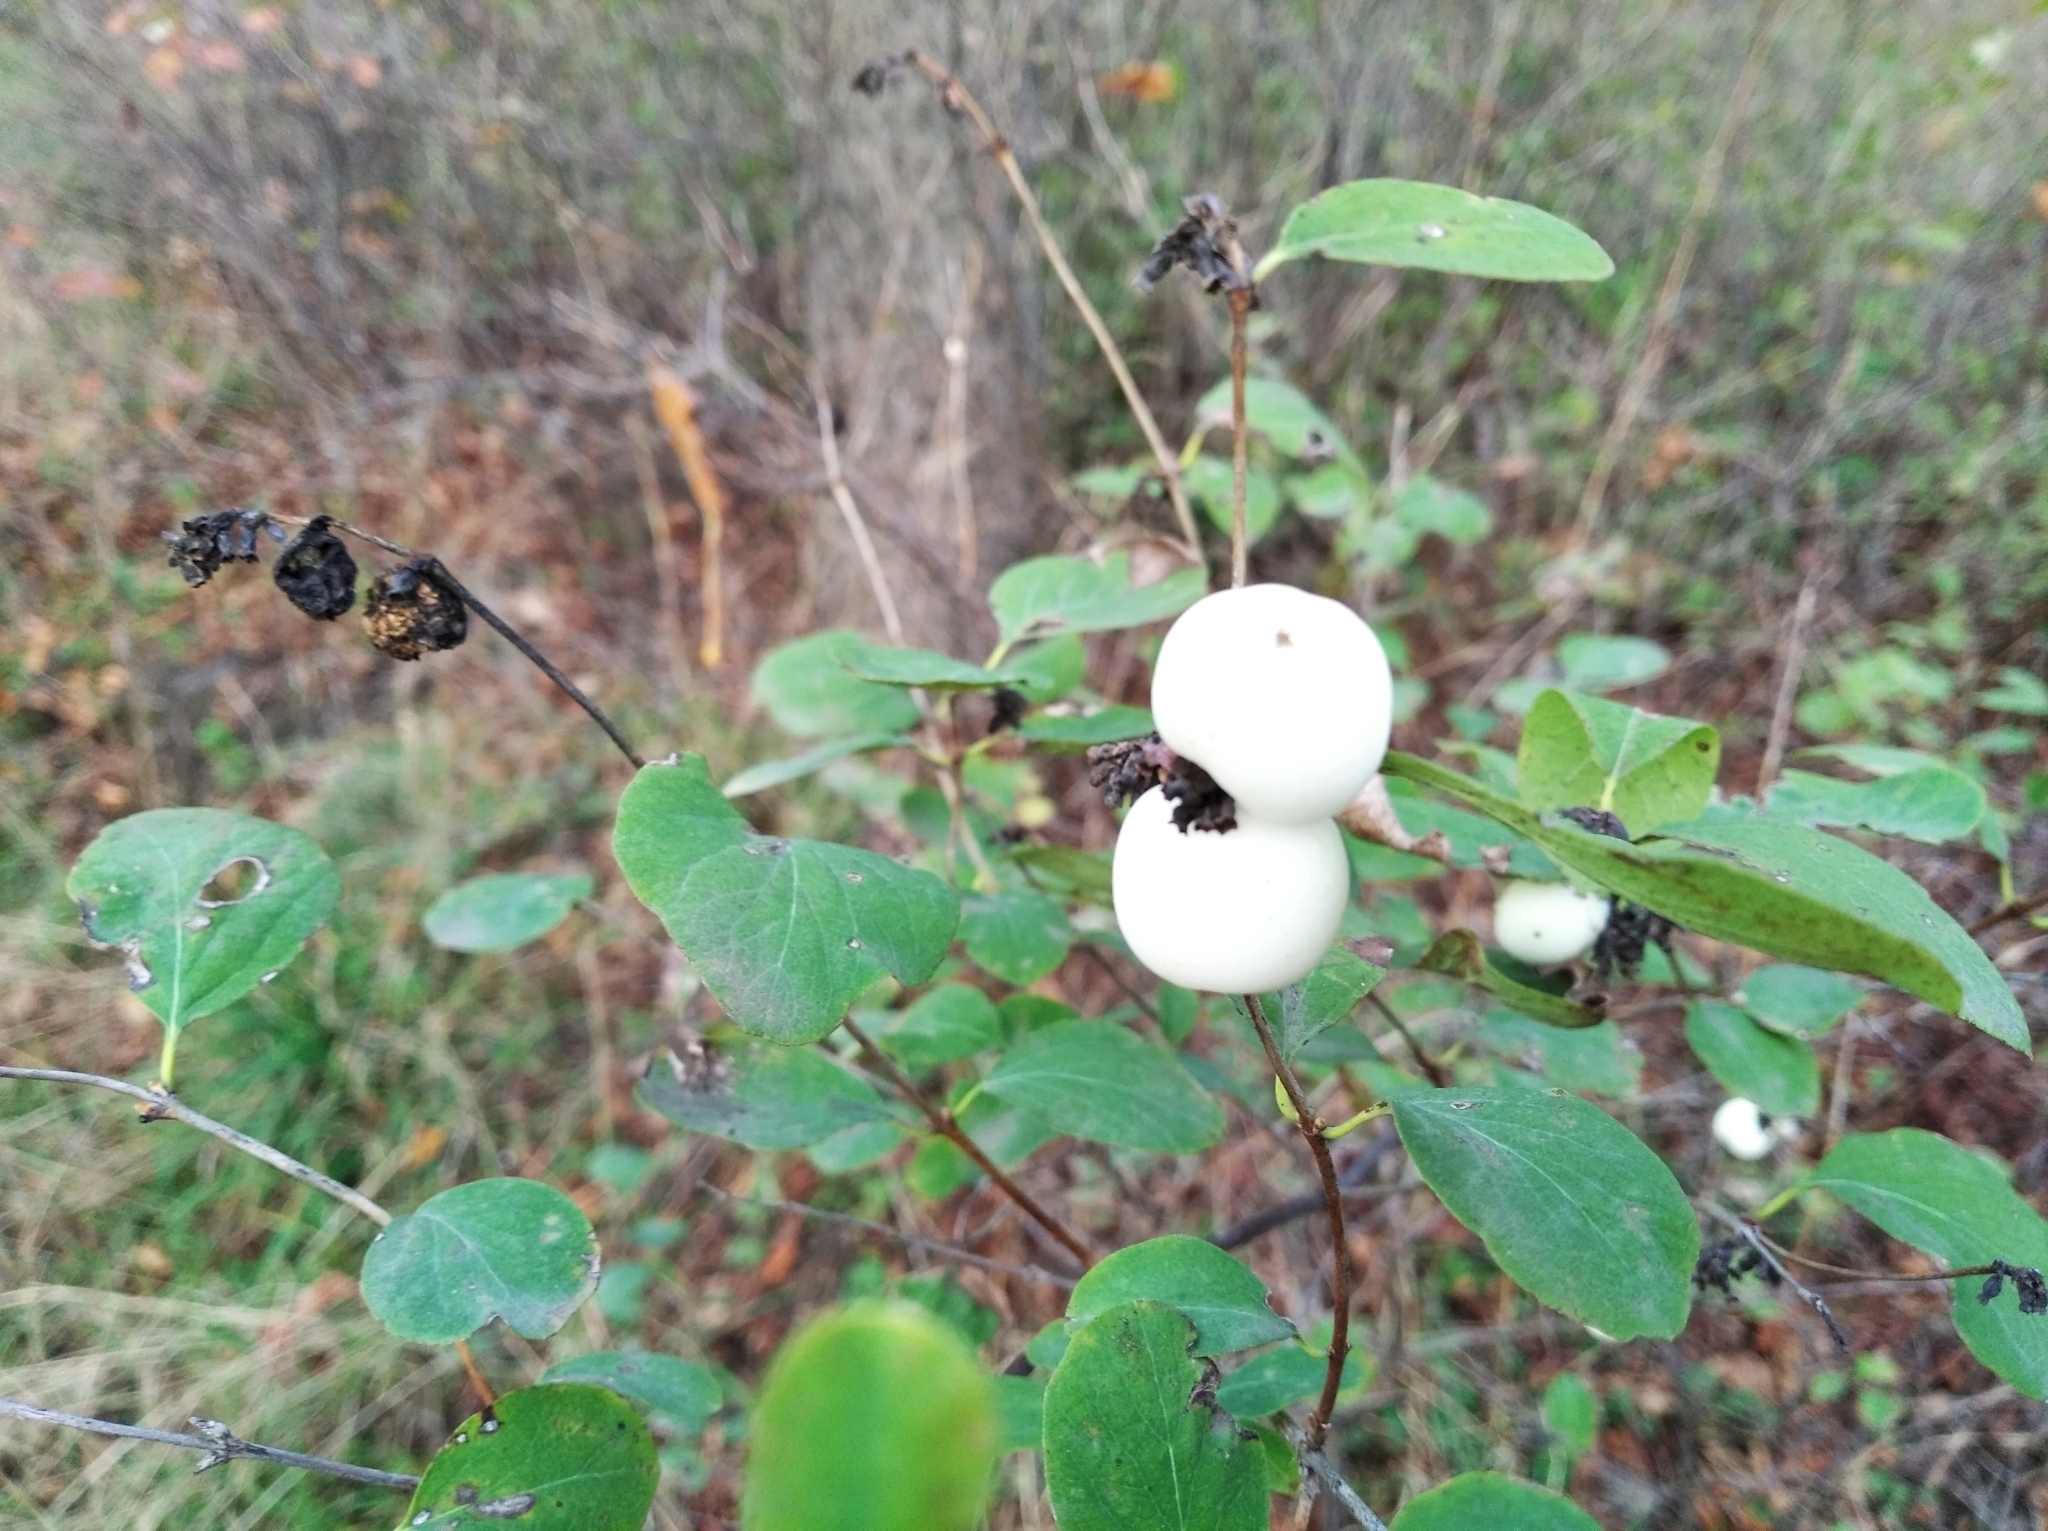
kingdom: Plantae
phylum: Tracheophyta
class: Magnoliopsida
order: Dipsacales
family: Caprifoliaceae
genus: Symphoricarpos
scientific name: Symphoricarpos albus
